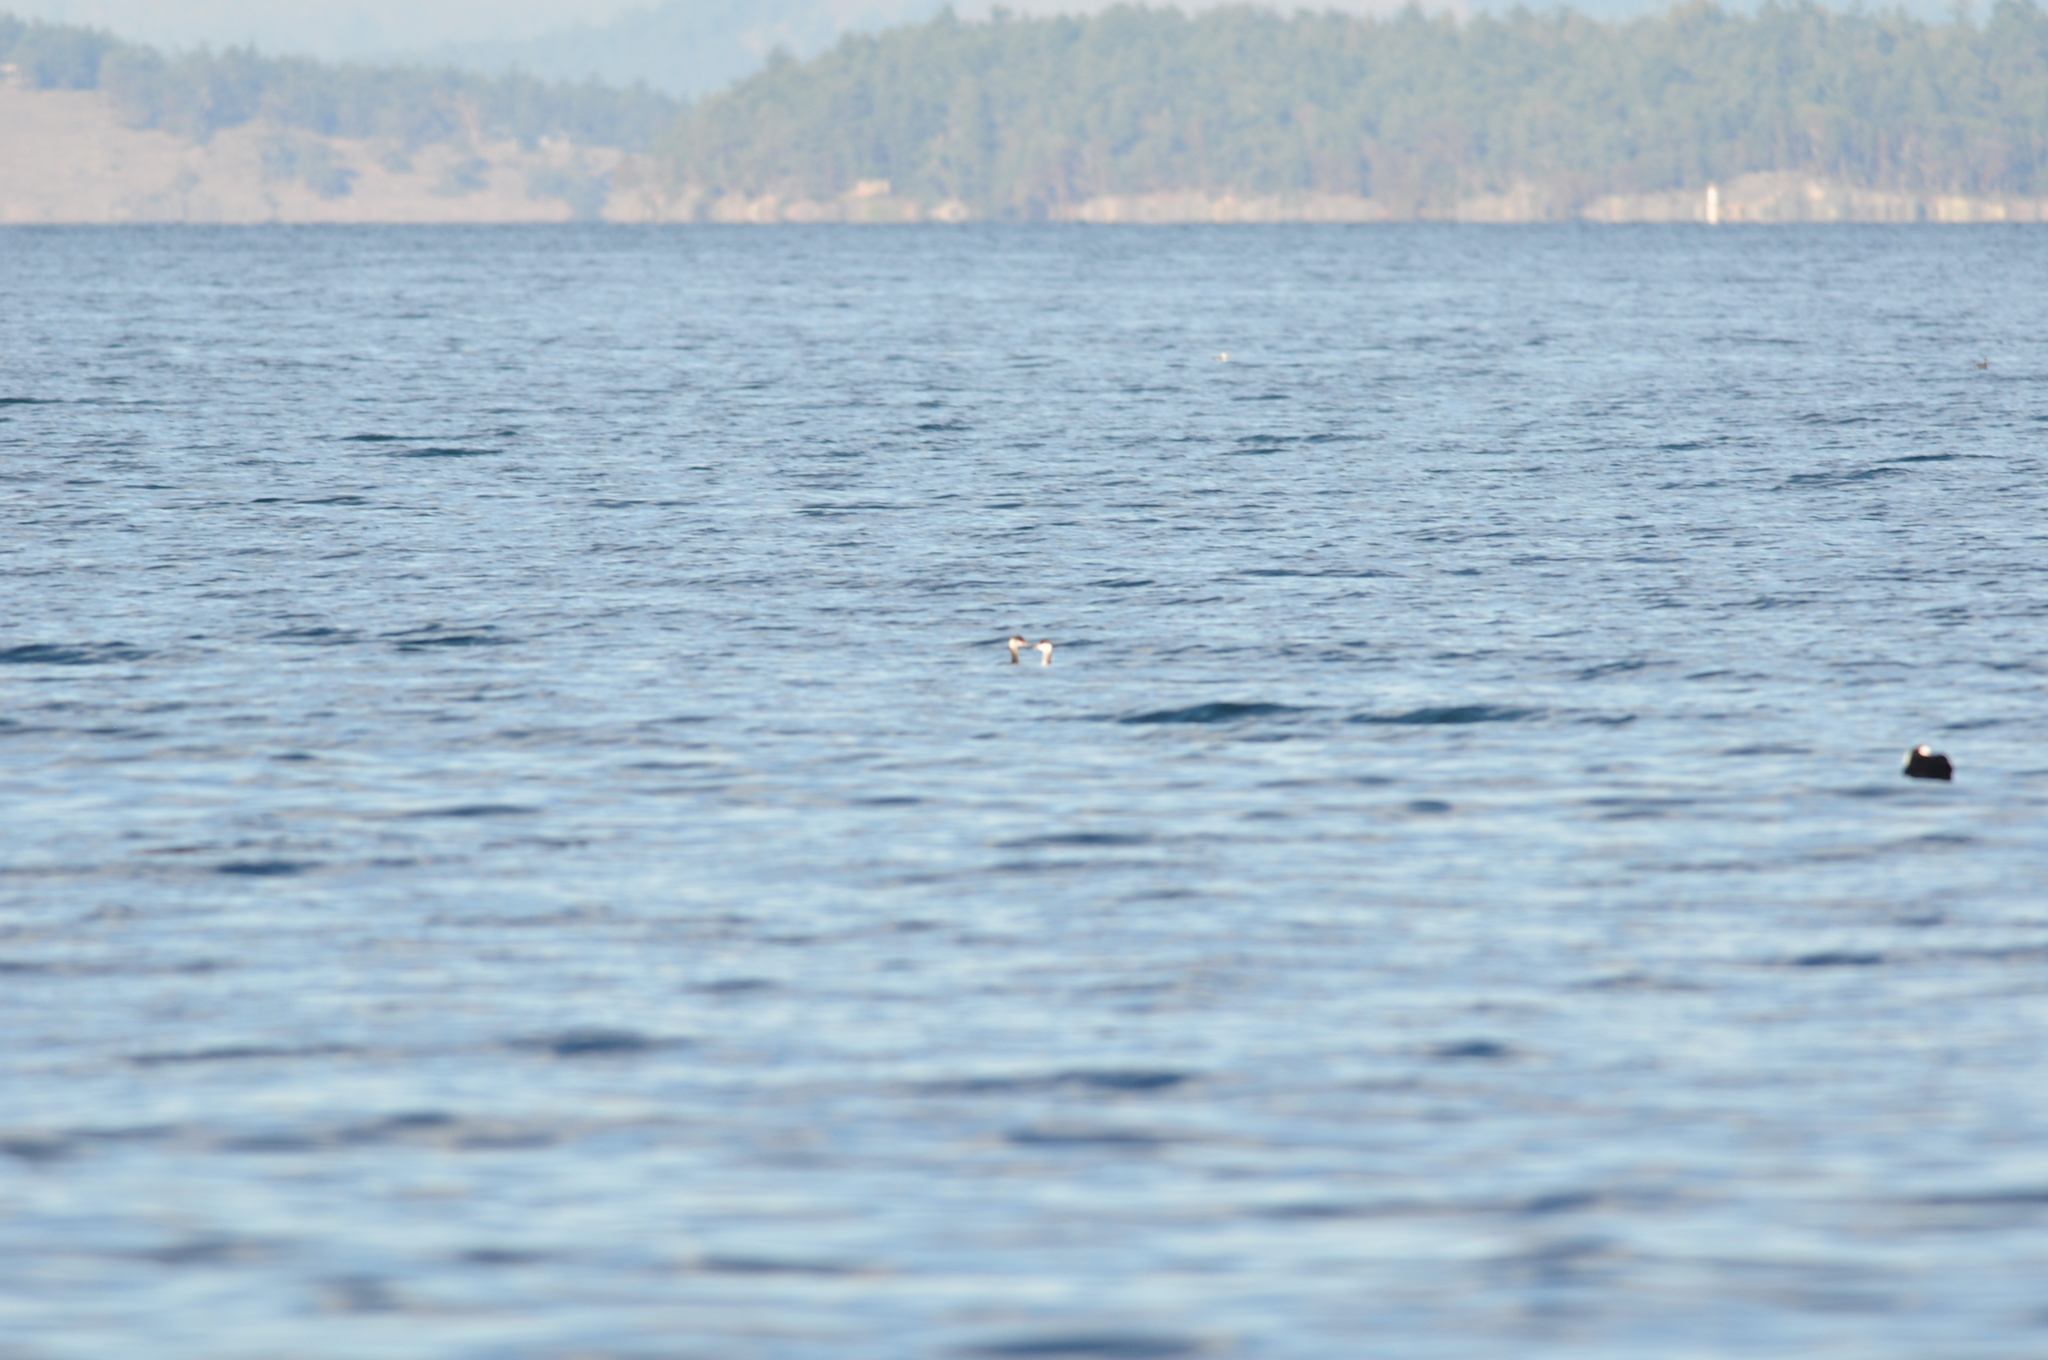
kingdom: Animalia
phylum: Chordata
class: Aves
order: Podicipediformes
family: Podicipedidae
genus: Podiceps
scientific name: Podiceps auritus
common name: Horned grebe
